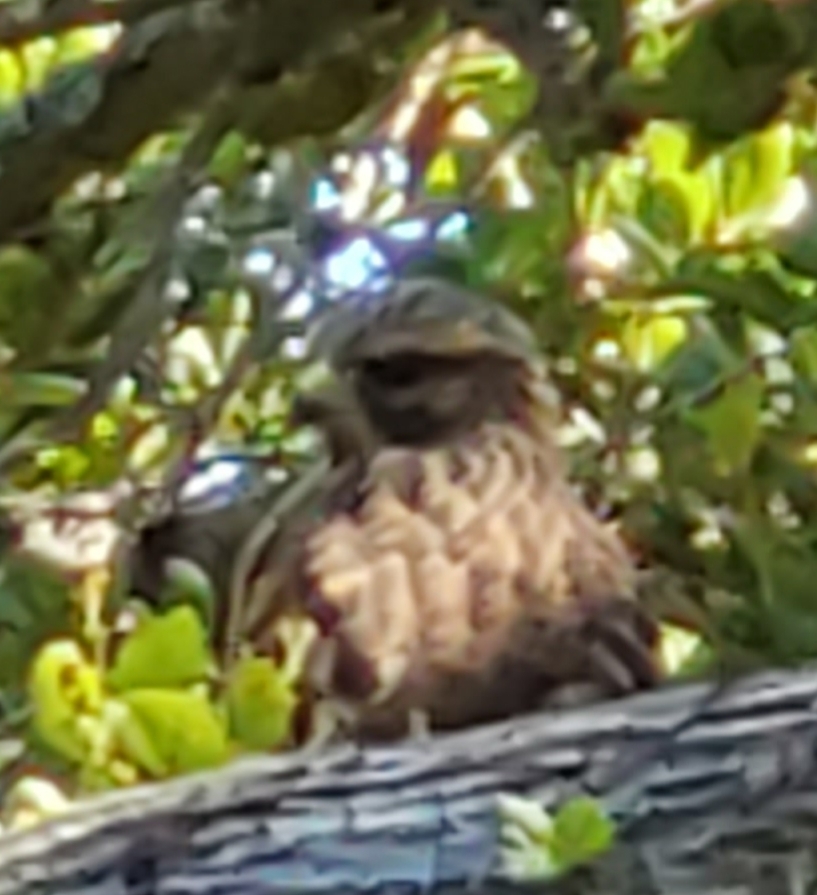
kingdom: Animalia
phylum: Chordata
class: Aves
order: Accipitriformes
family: Accipitridae
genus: Buteo
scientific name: Buteo lineatus
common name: Red-shouldered hawk
